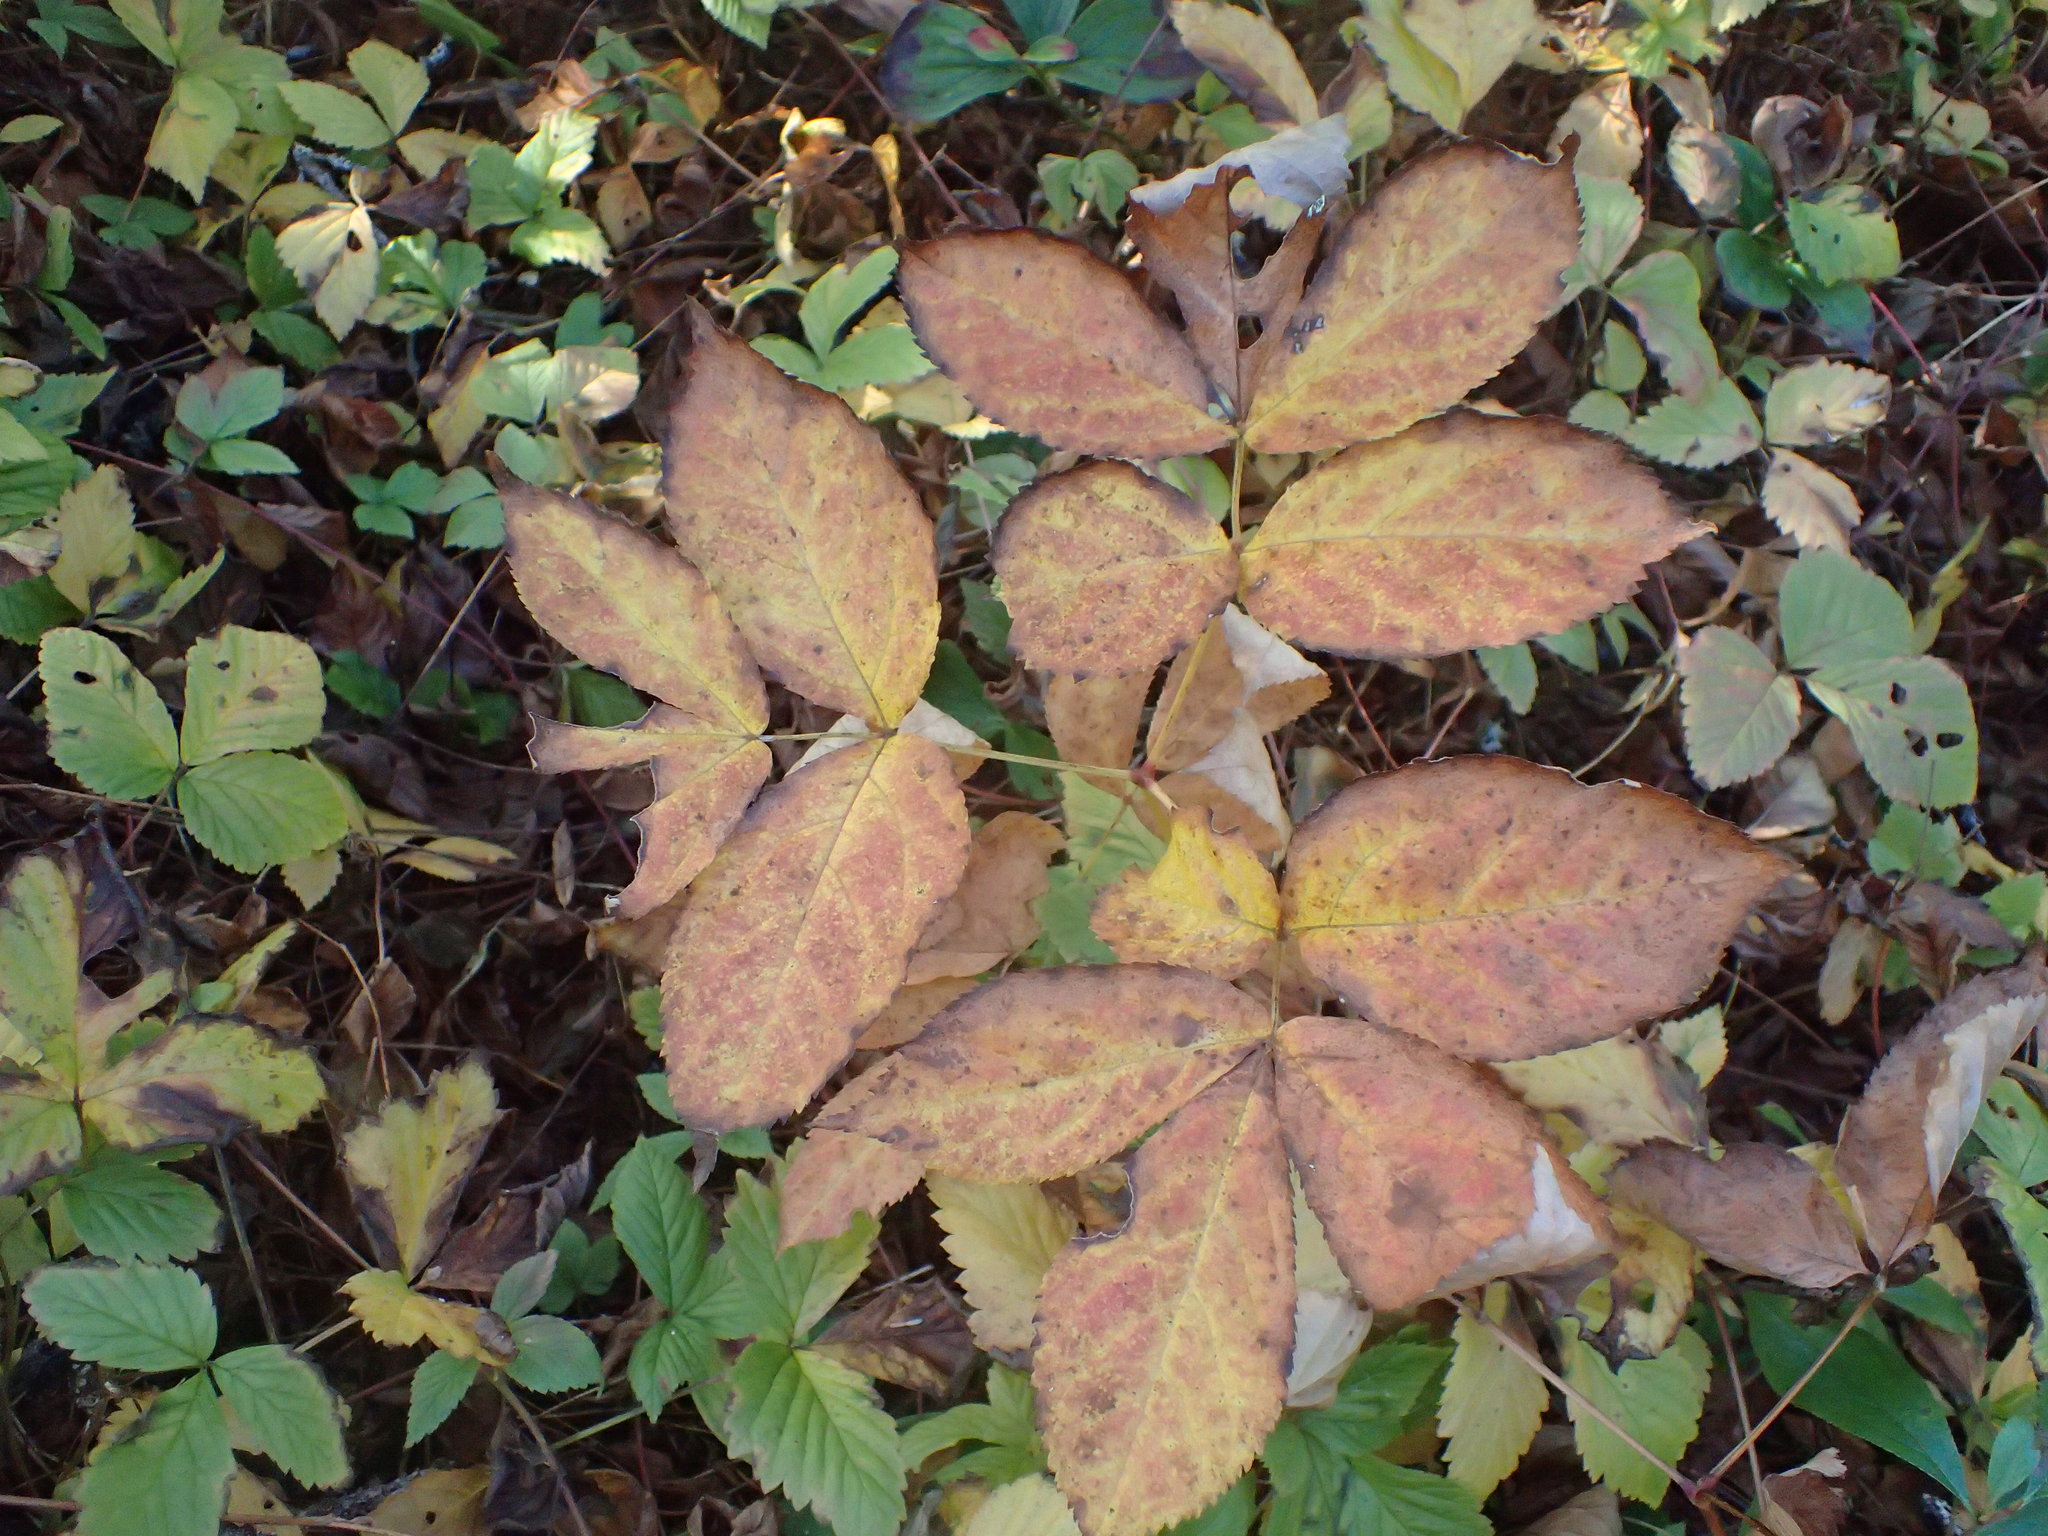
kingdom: Plantae
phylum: Tracheophyta
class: Magnoliopsida
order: Apiales
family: Araliaceae
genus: Aralia
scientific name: Aralia nudicaulis
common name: Wild sarsaparilla
